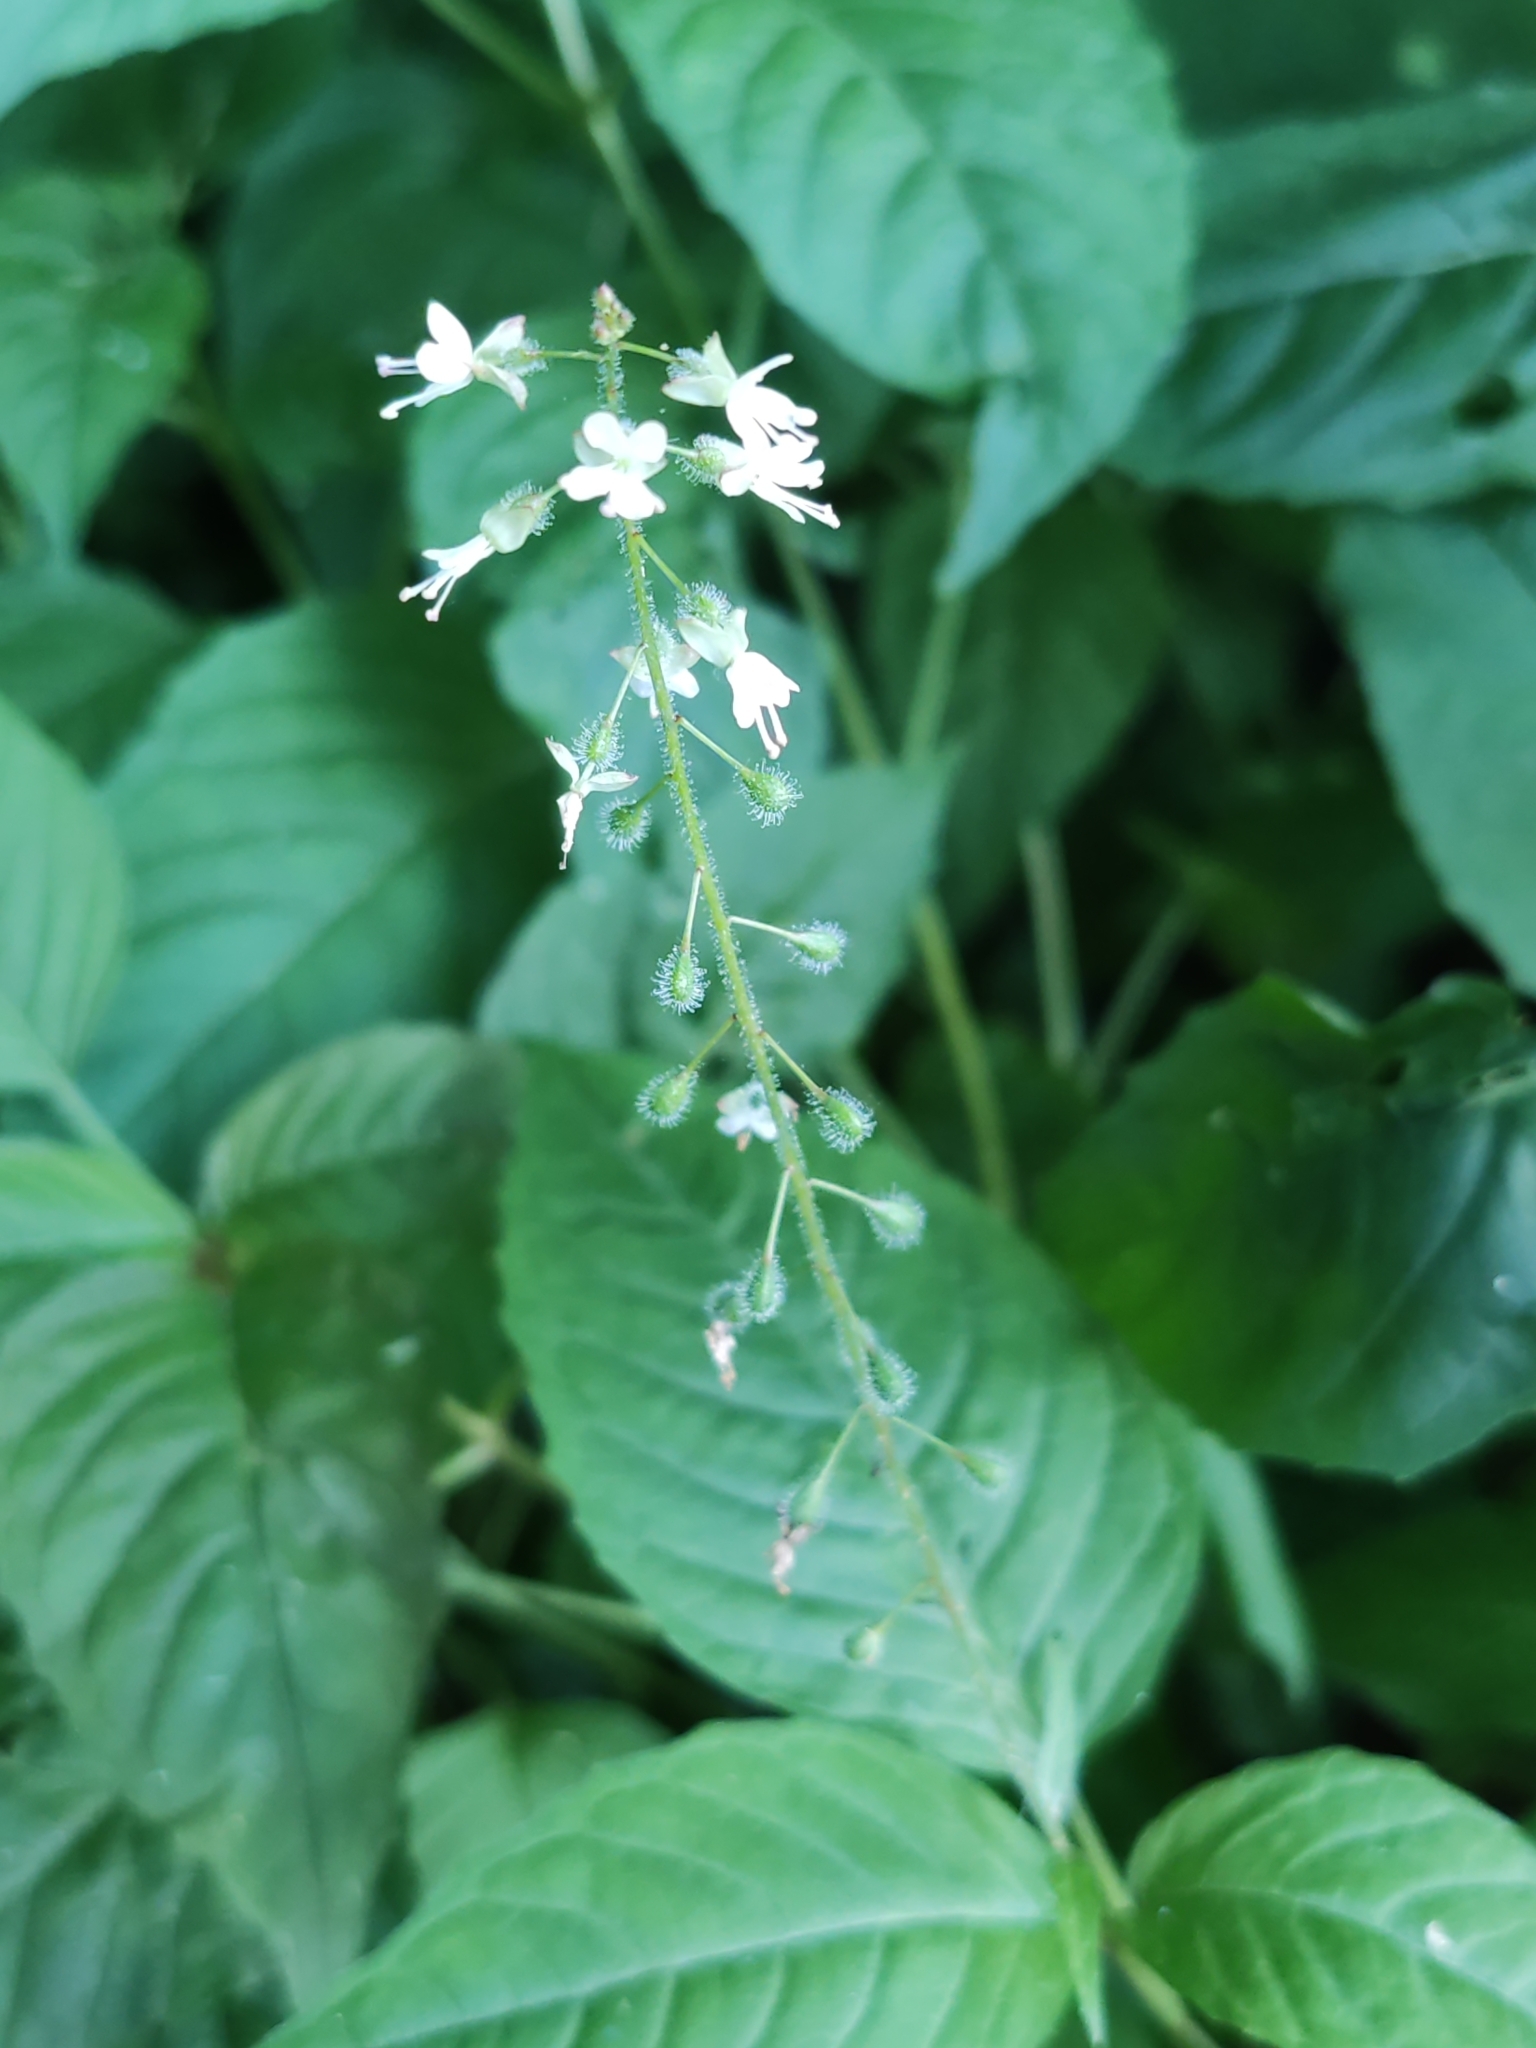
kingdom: Plantae
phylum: Tracheophyta
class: Magnoliopsida
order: Myrtales
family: Onagraceae
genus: Circaea
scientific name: Circaea lutetiana
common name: Enchanter's-nightshade
